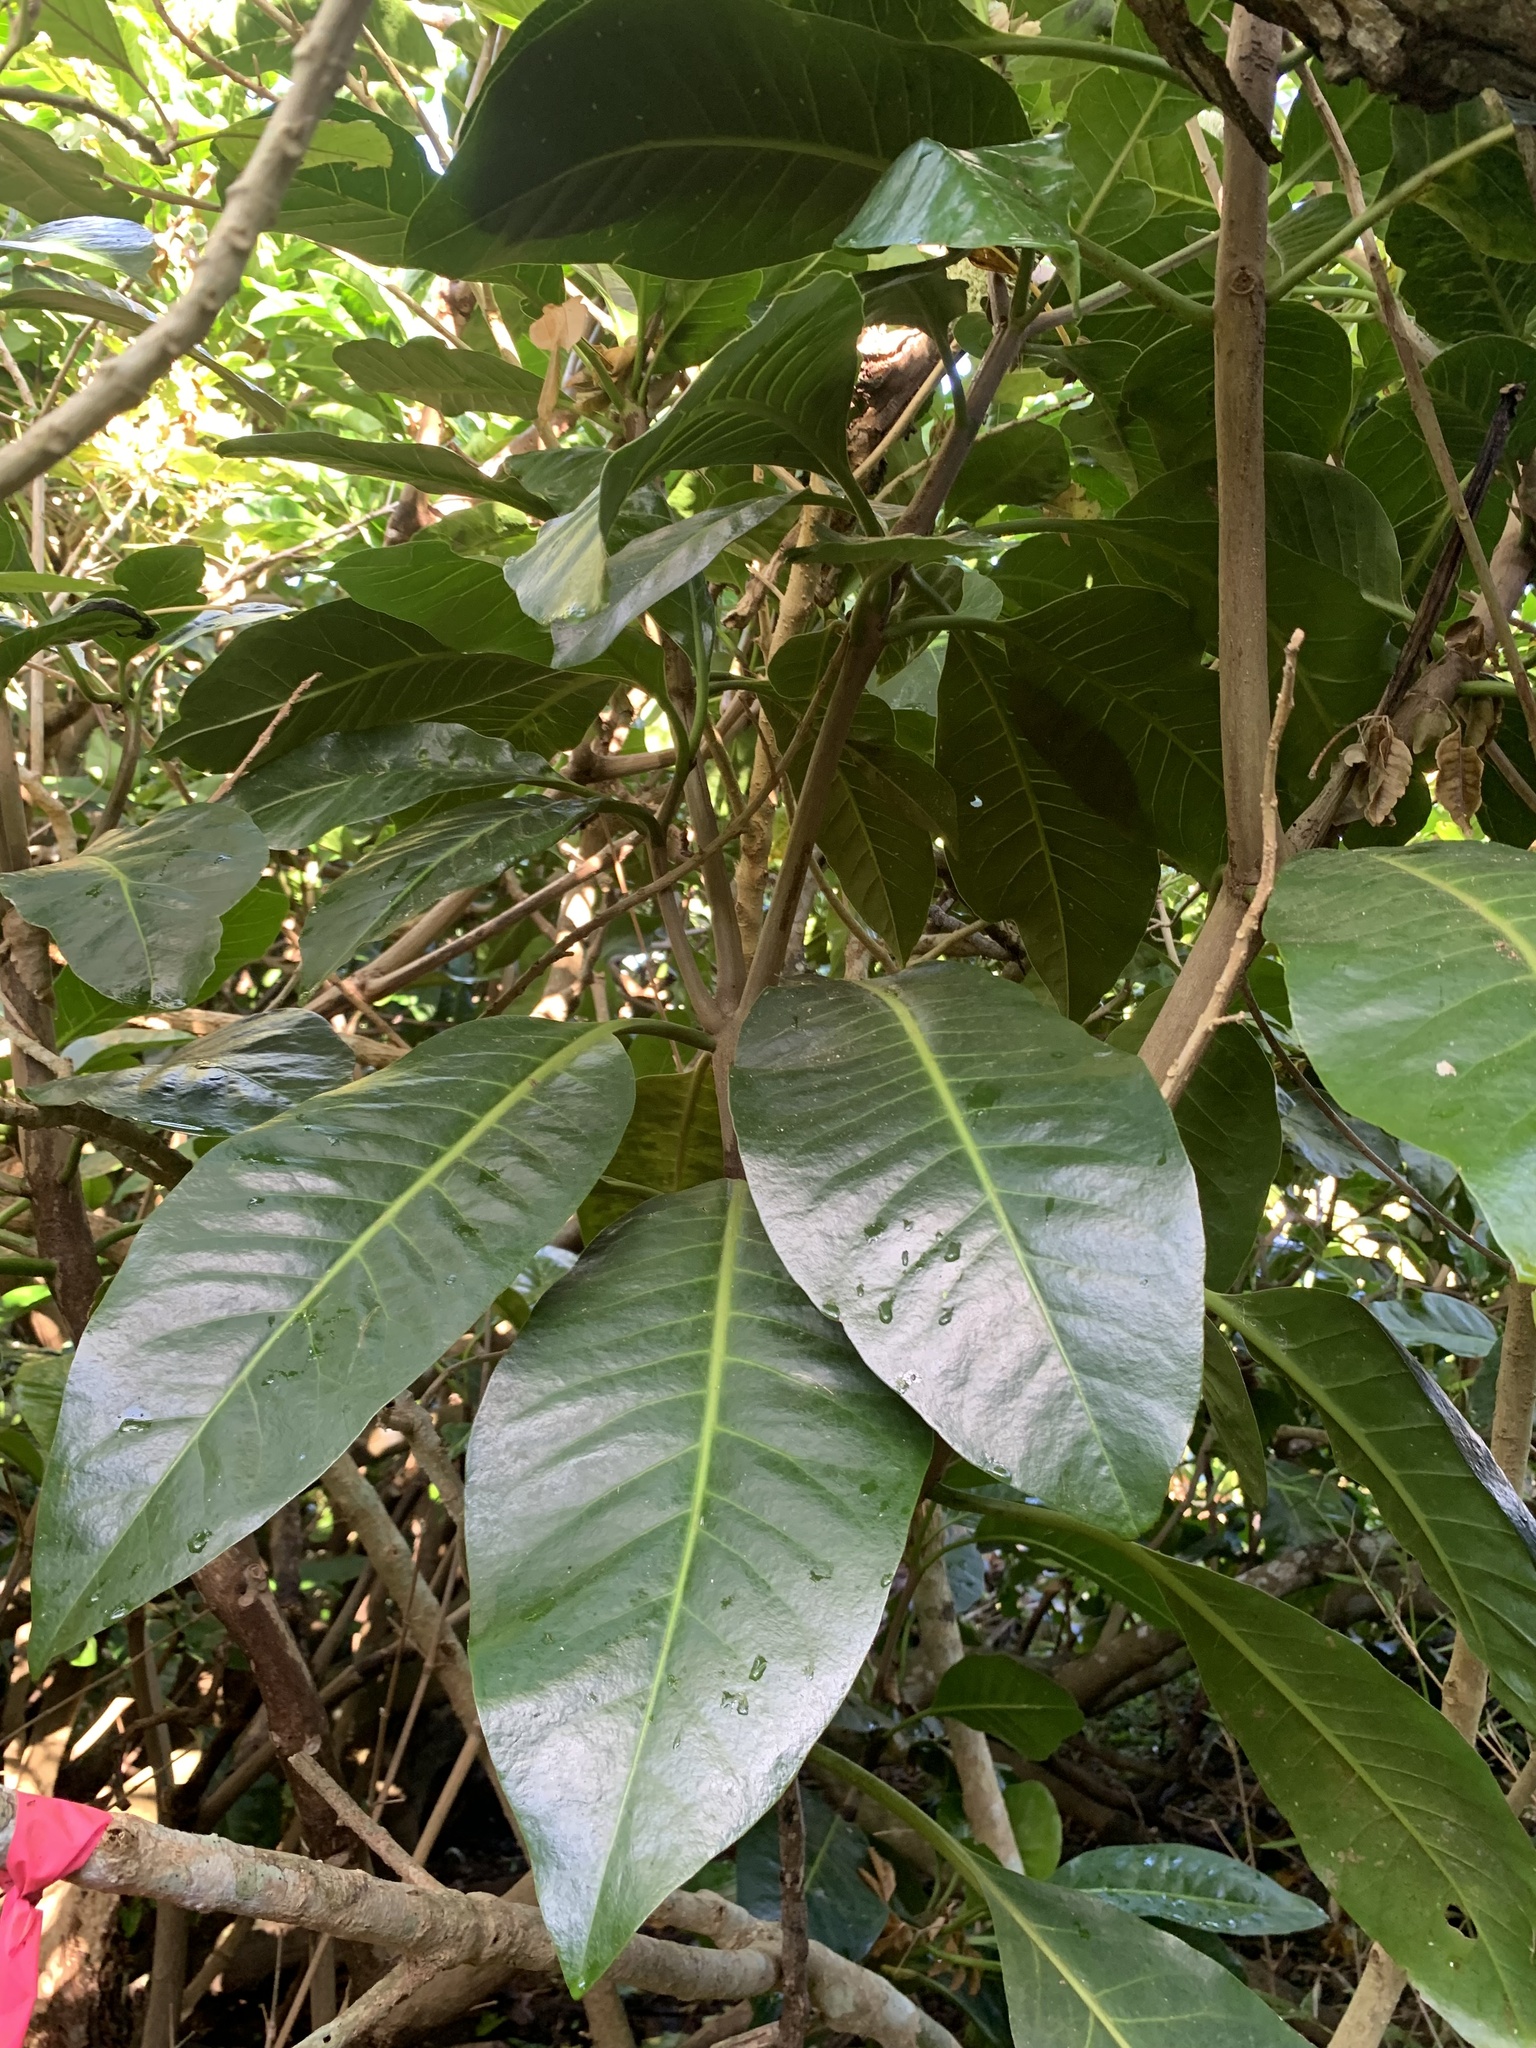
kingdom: Plantae
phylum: Tracheophyta
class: Magnoliopsida
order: Caryophyllales
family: Nyctaginaceae
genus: Ceodes
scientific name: Ceodes umbellifera
